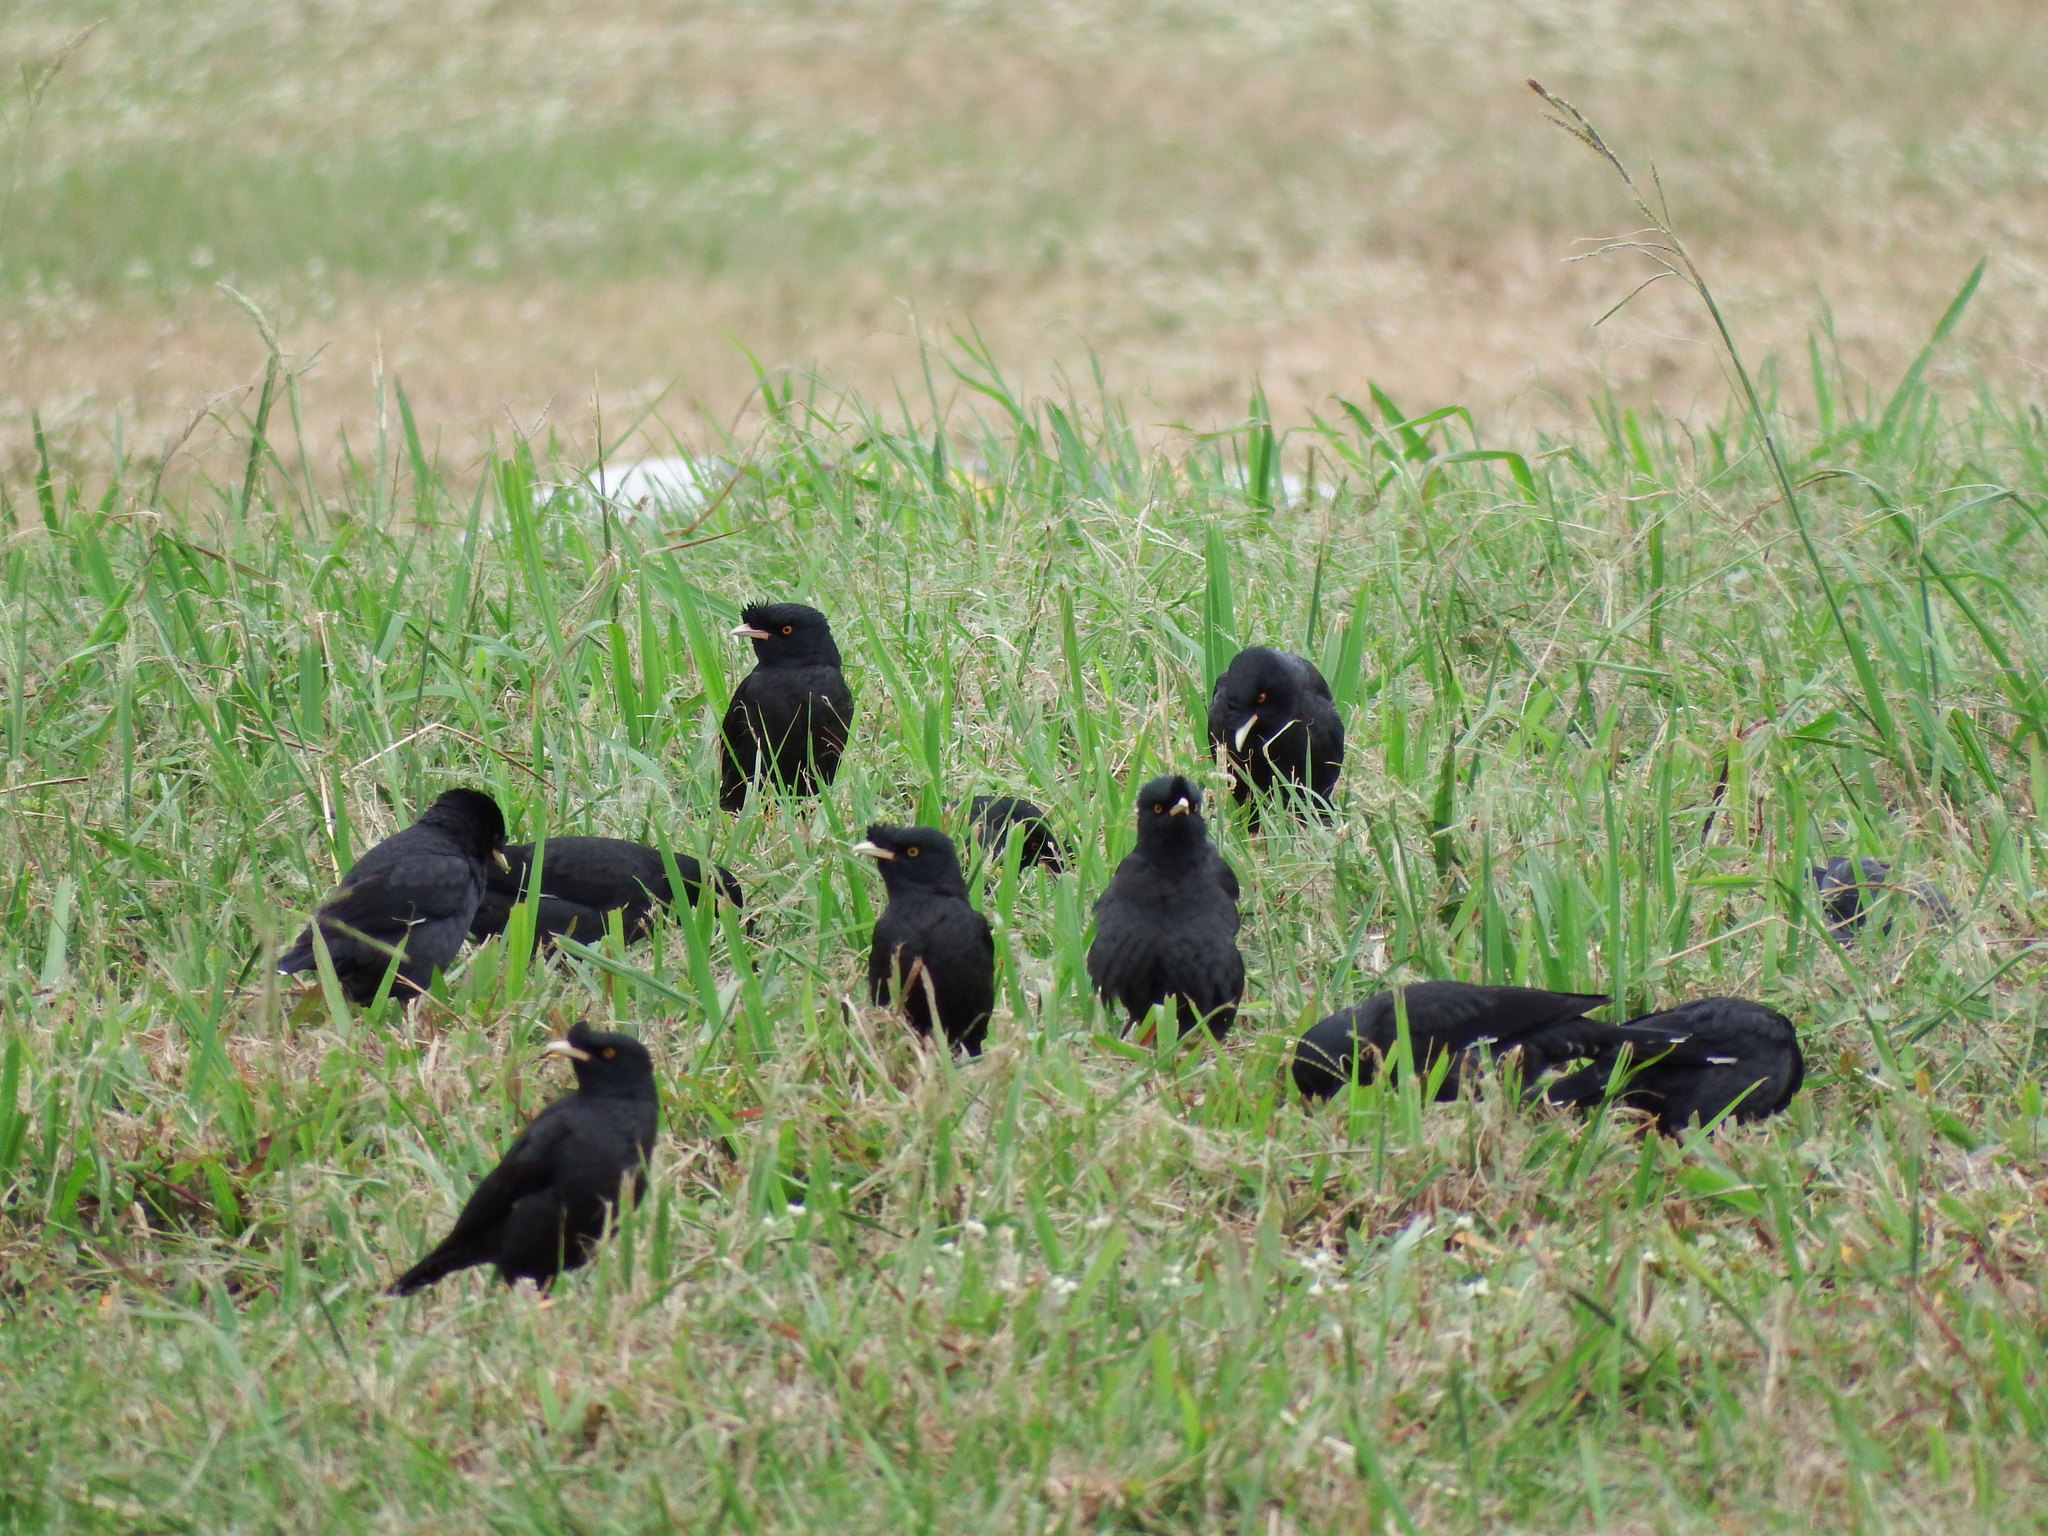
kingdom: Animalia
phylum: Chordata
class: Aves
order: Passeriformes
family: Sturnidae
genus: Acridotheres
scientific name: Acridotheres cristatellus
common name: Crested myna
